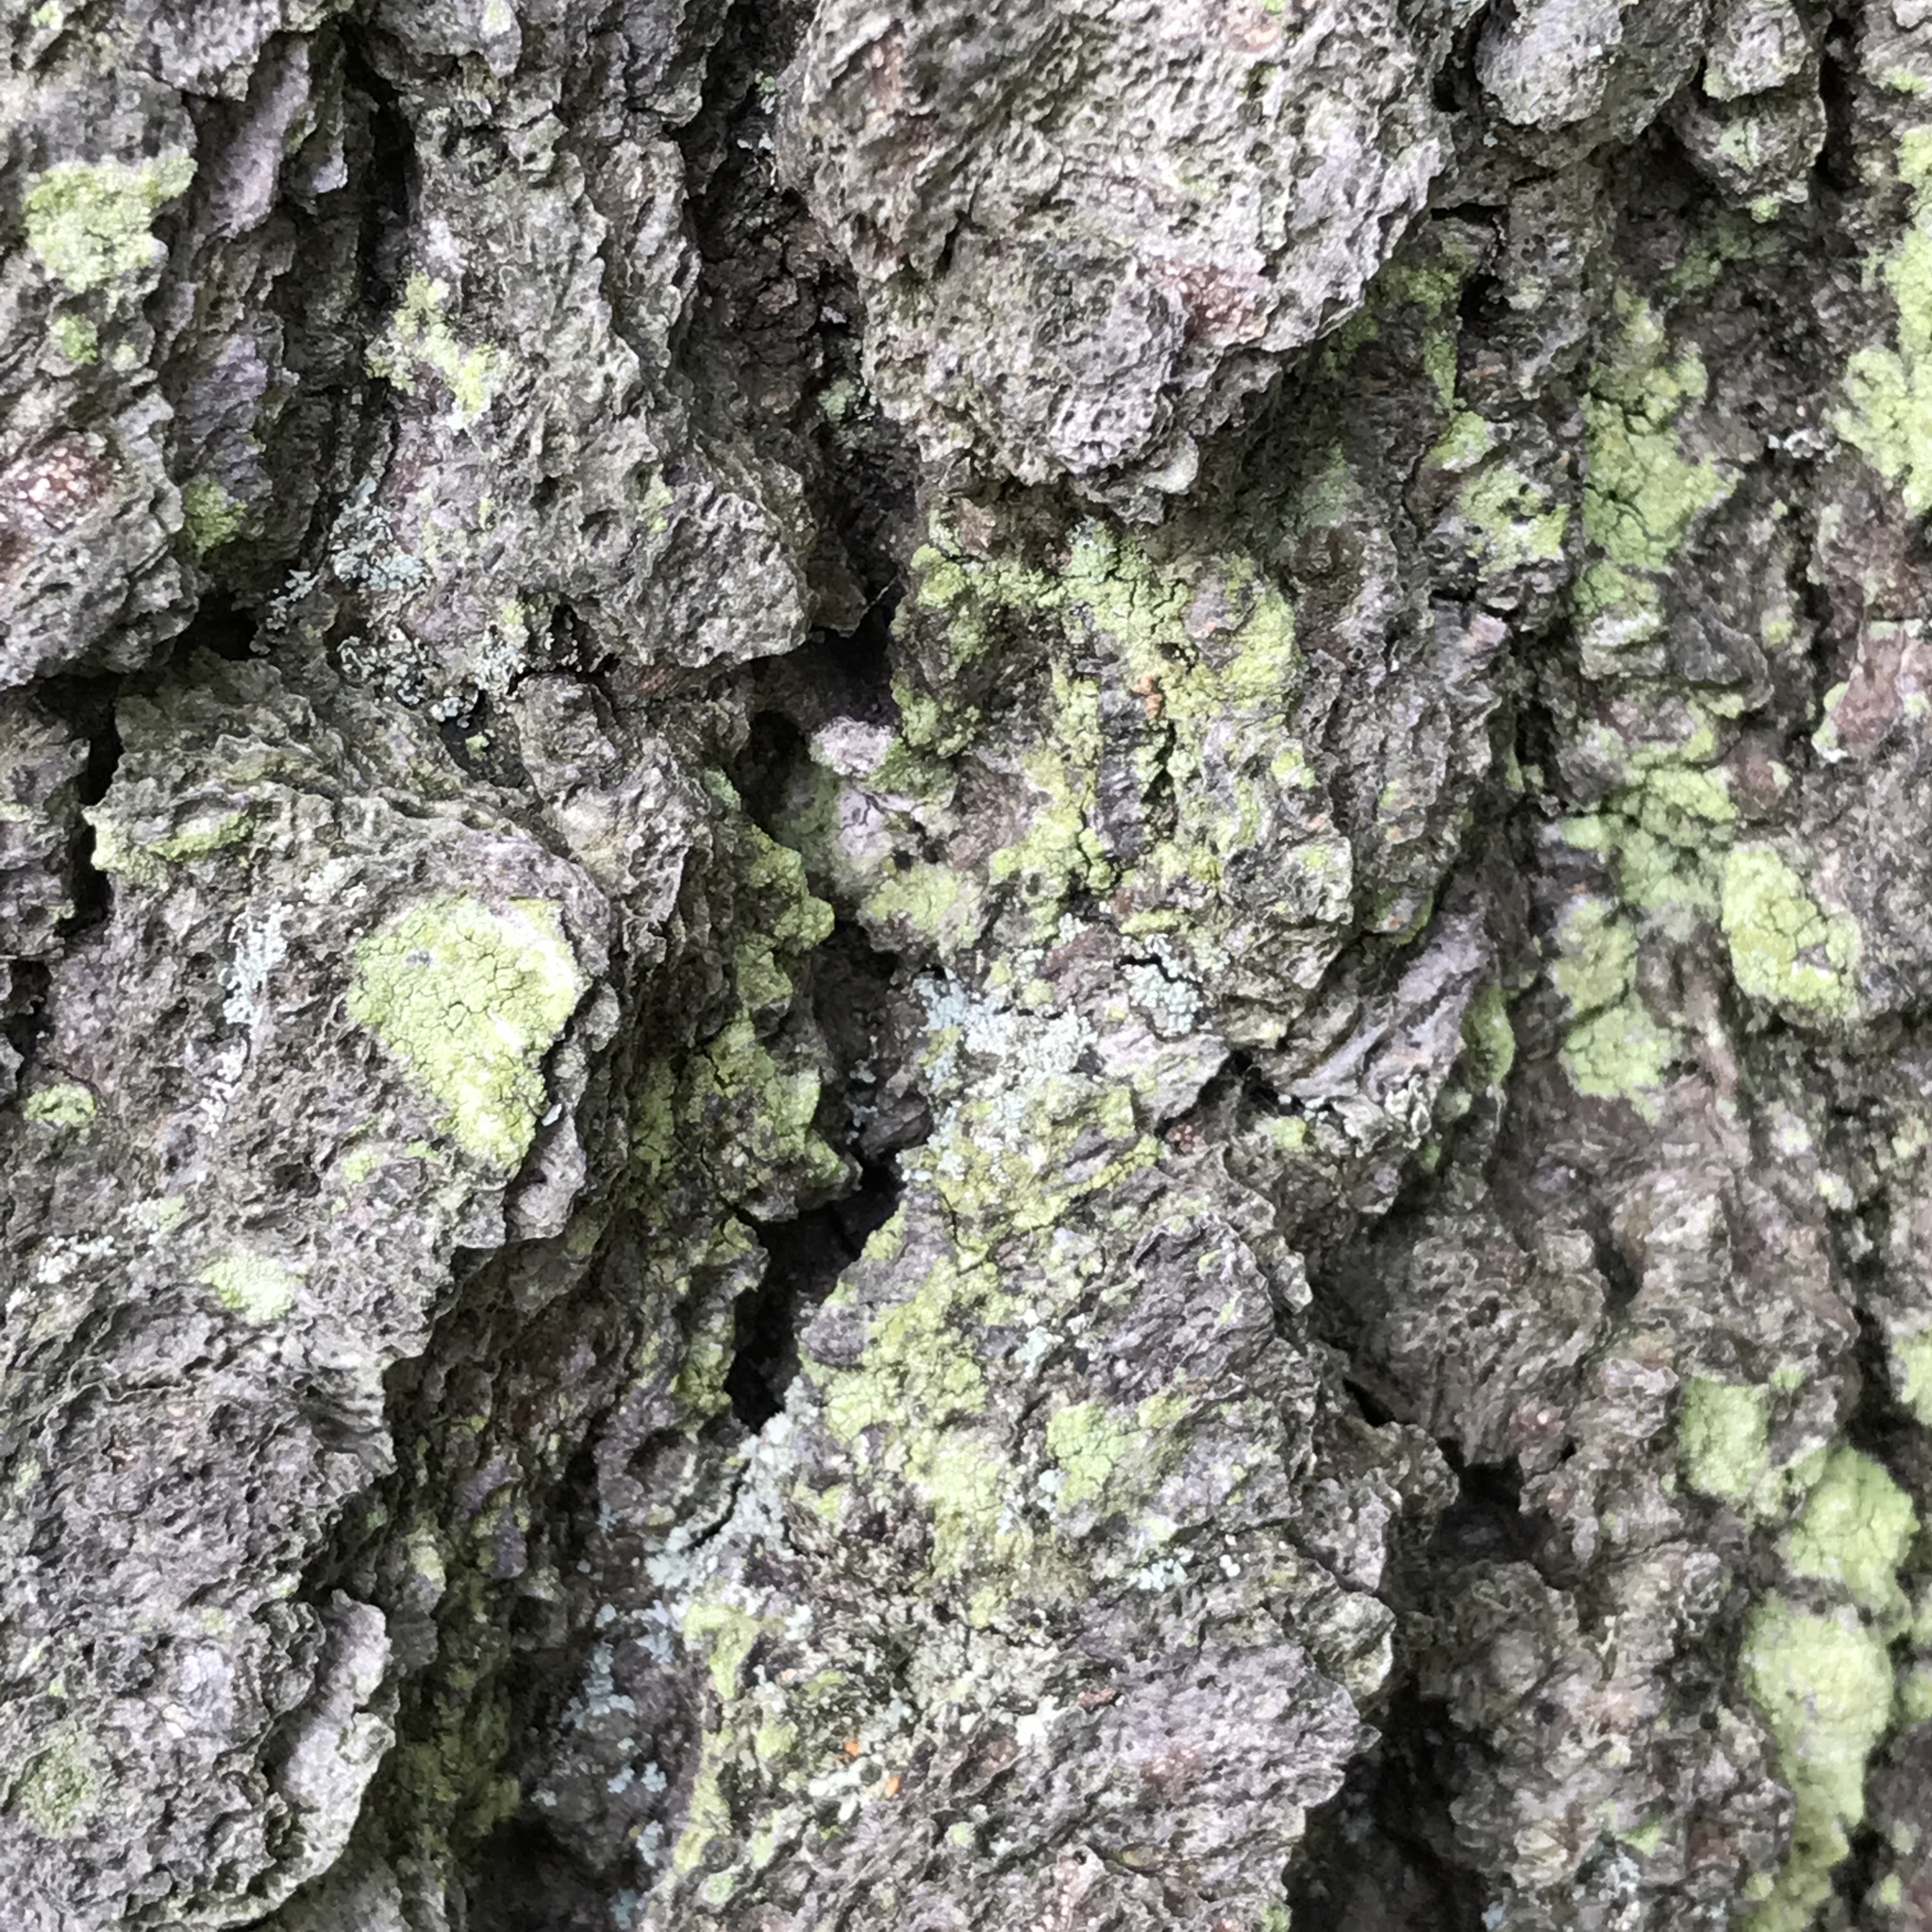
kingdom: Fungi
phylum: Ascomycota
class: Lecanoromycetes
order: Schaereriales
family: Schaereriaceae
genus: Ropalospora
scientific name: Ropalospora viridis
